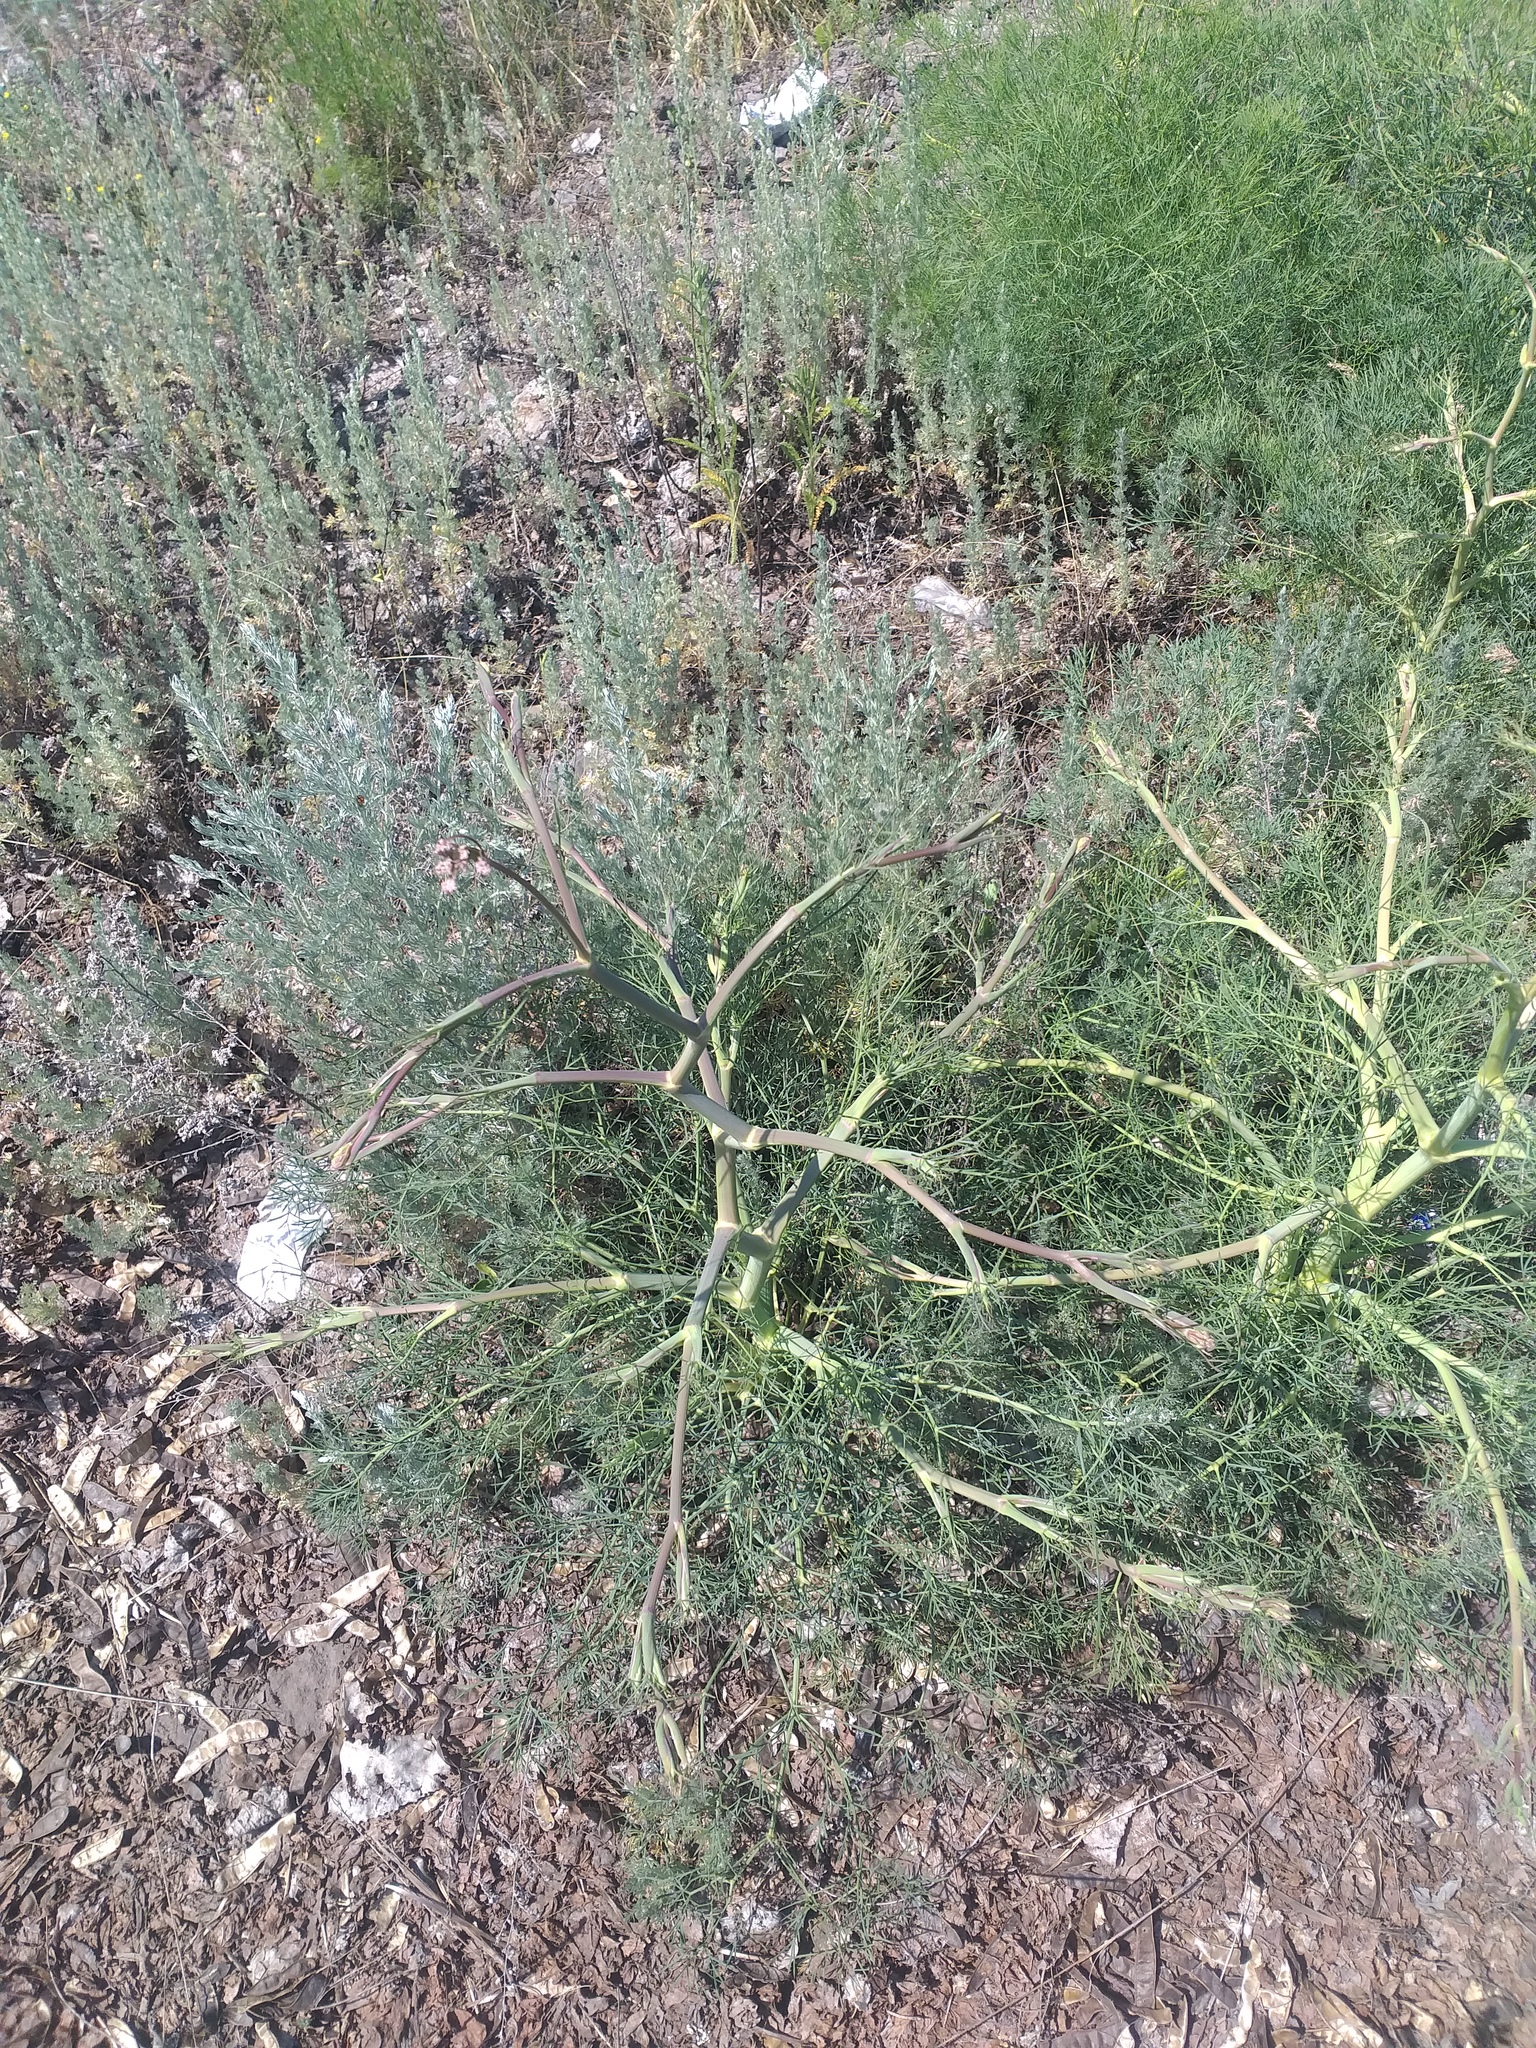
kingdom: Plantae
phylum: Tracheophyta
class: Magnoliopsida
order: Apiales
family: Apiaceae
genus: Seseli
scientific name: Seseli arenarium
